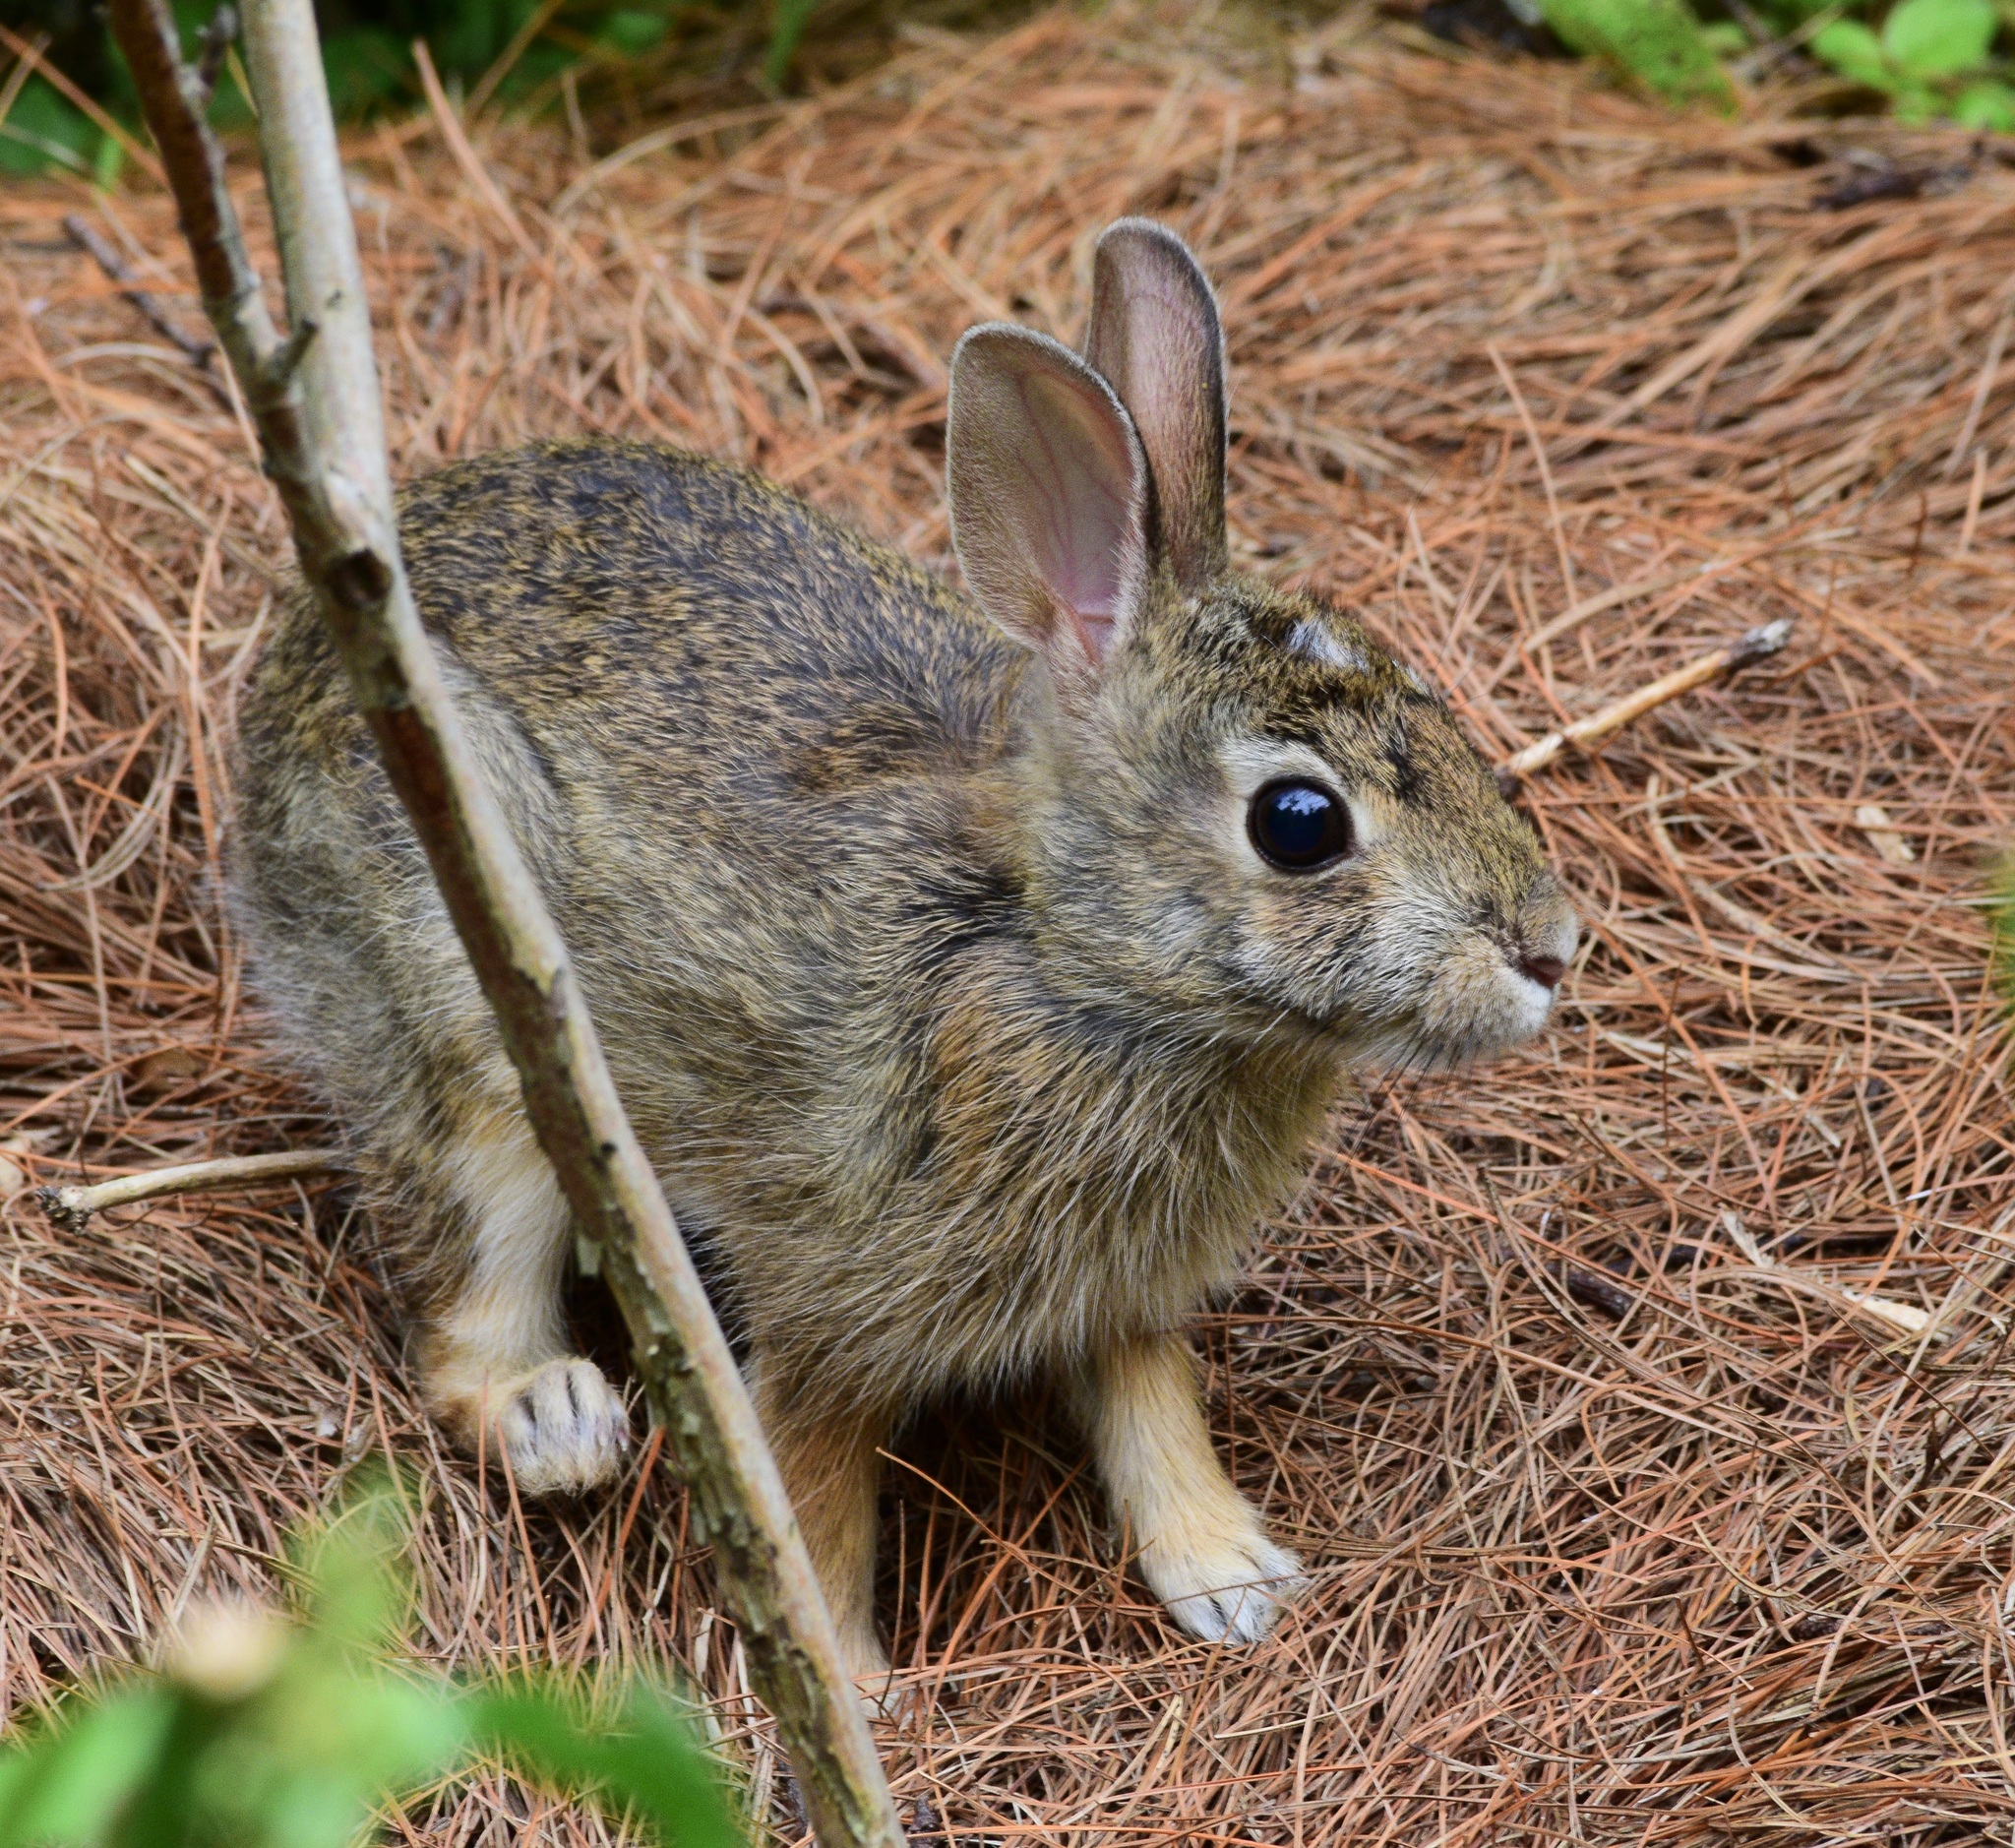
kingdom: Animalia
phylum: Chordata
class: Mammalia
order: Lagomorpha
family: Leporidae
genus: Sylvilagus
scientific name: Sylvilagus floridanus
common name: Eastern cottontail
